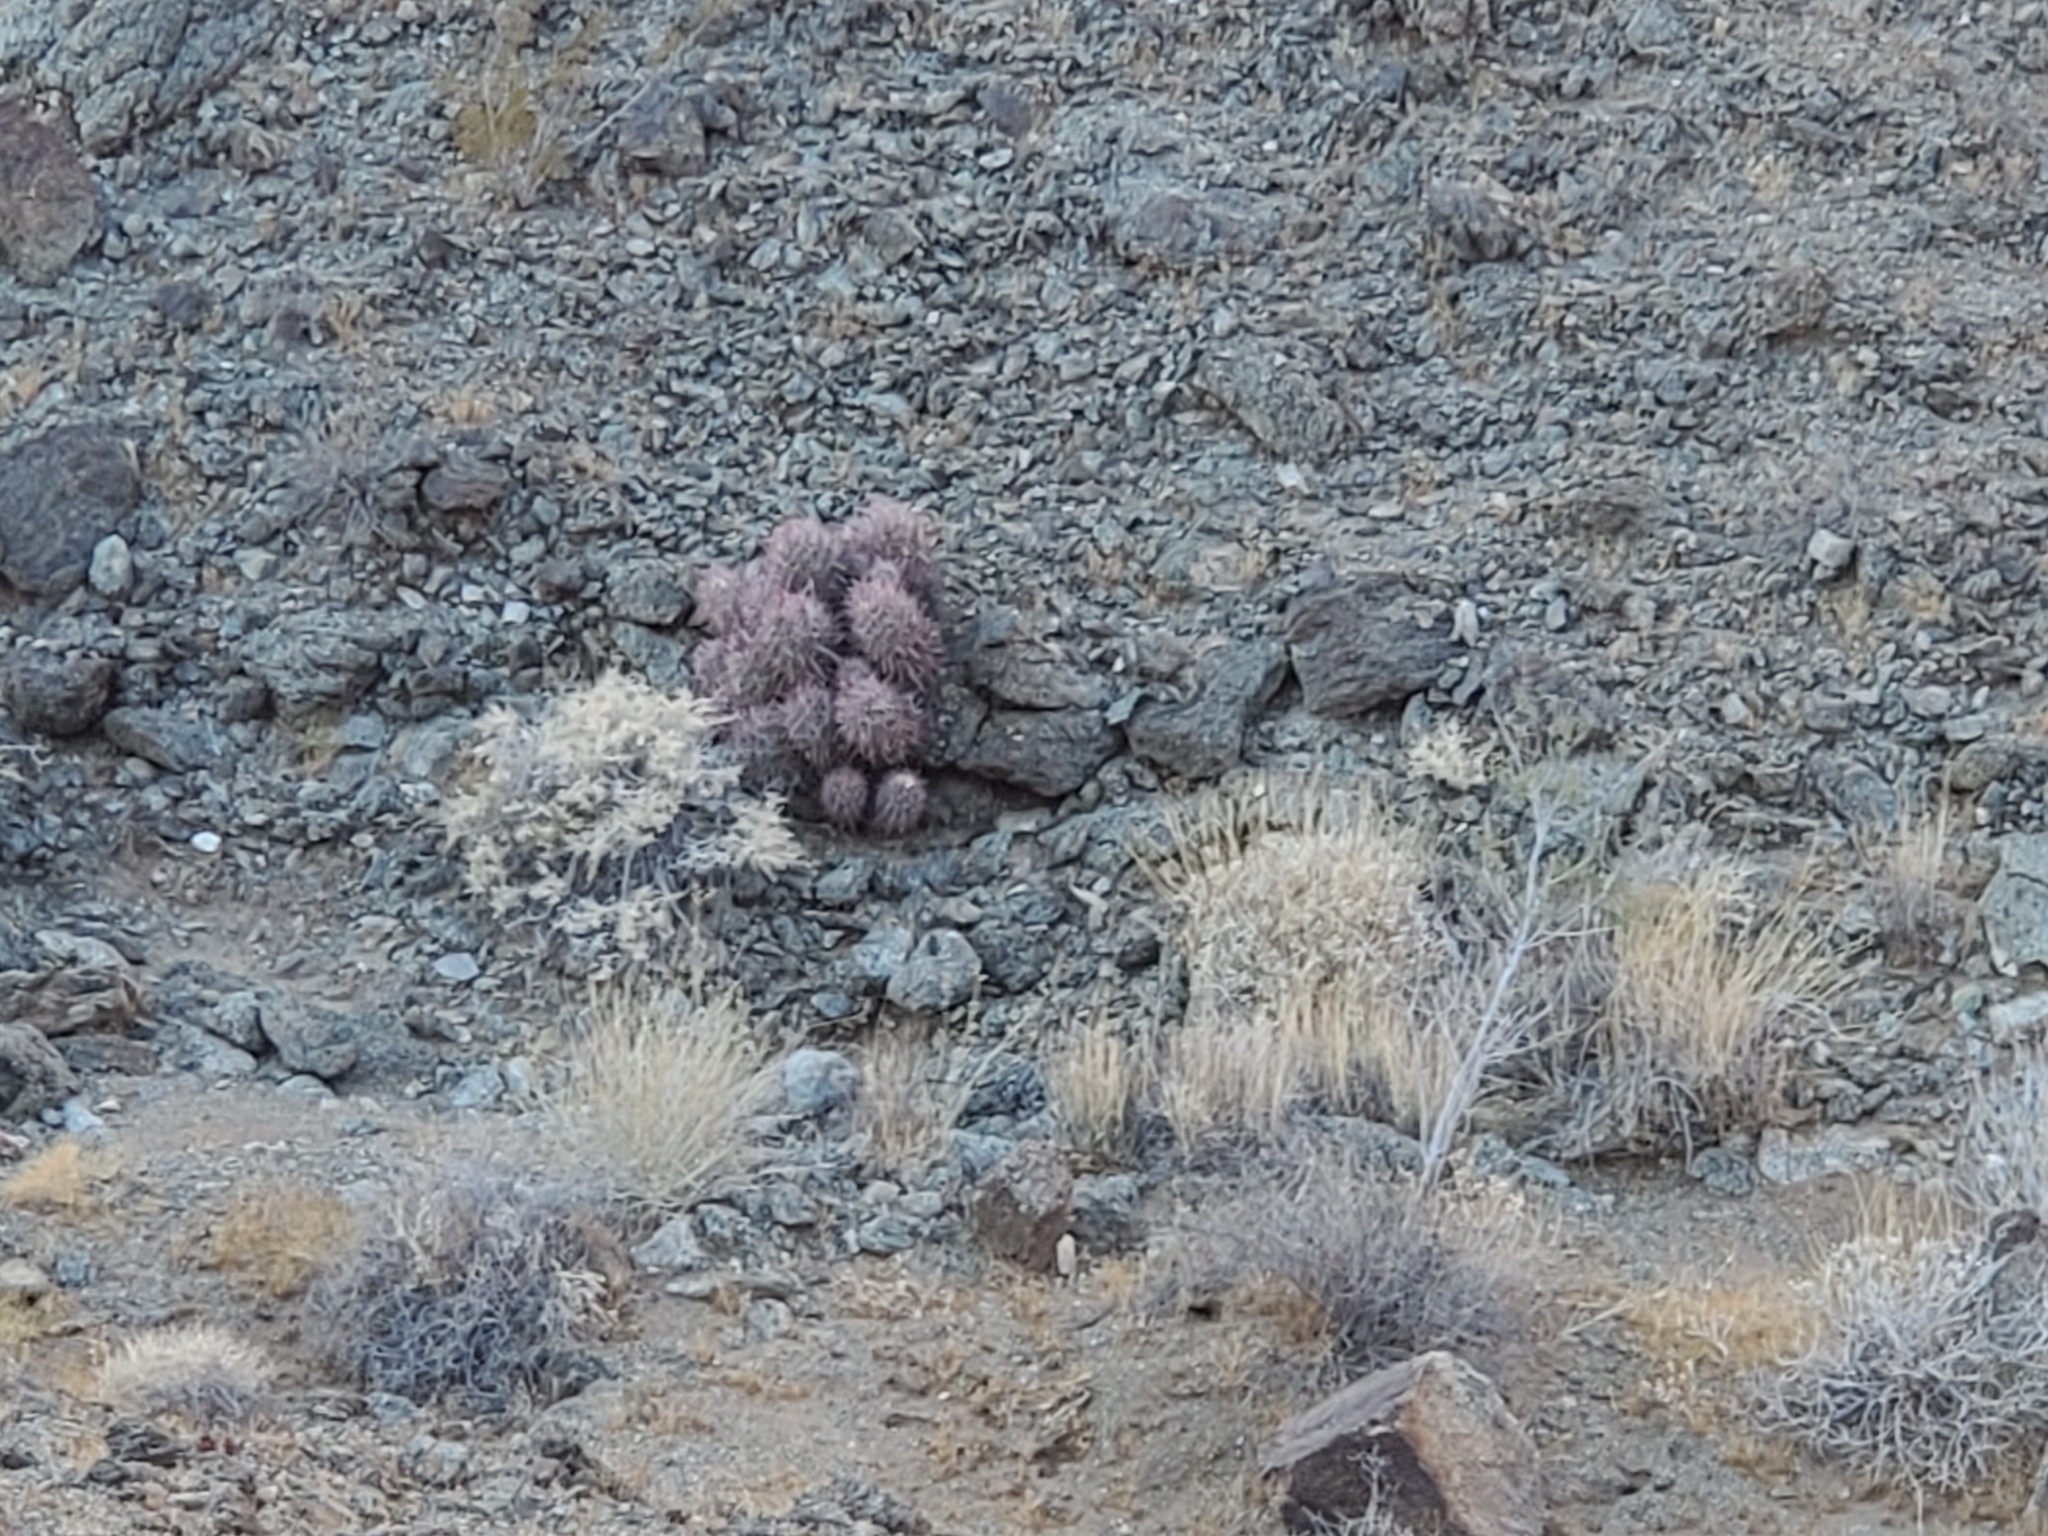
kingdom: Plantae
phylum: Tracheophyta
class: Magnoliopsida
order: Caryophyllales
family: Cactaceae
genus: Echinocactus
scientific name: Echinocactus polycephalus
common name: Cottontop cactus
